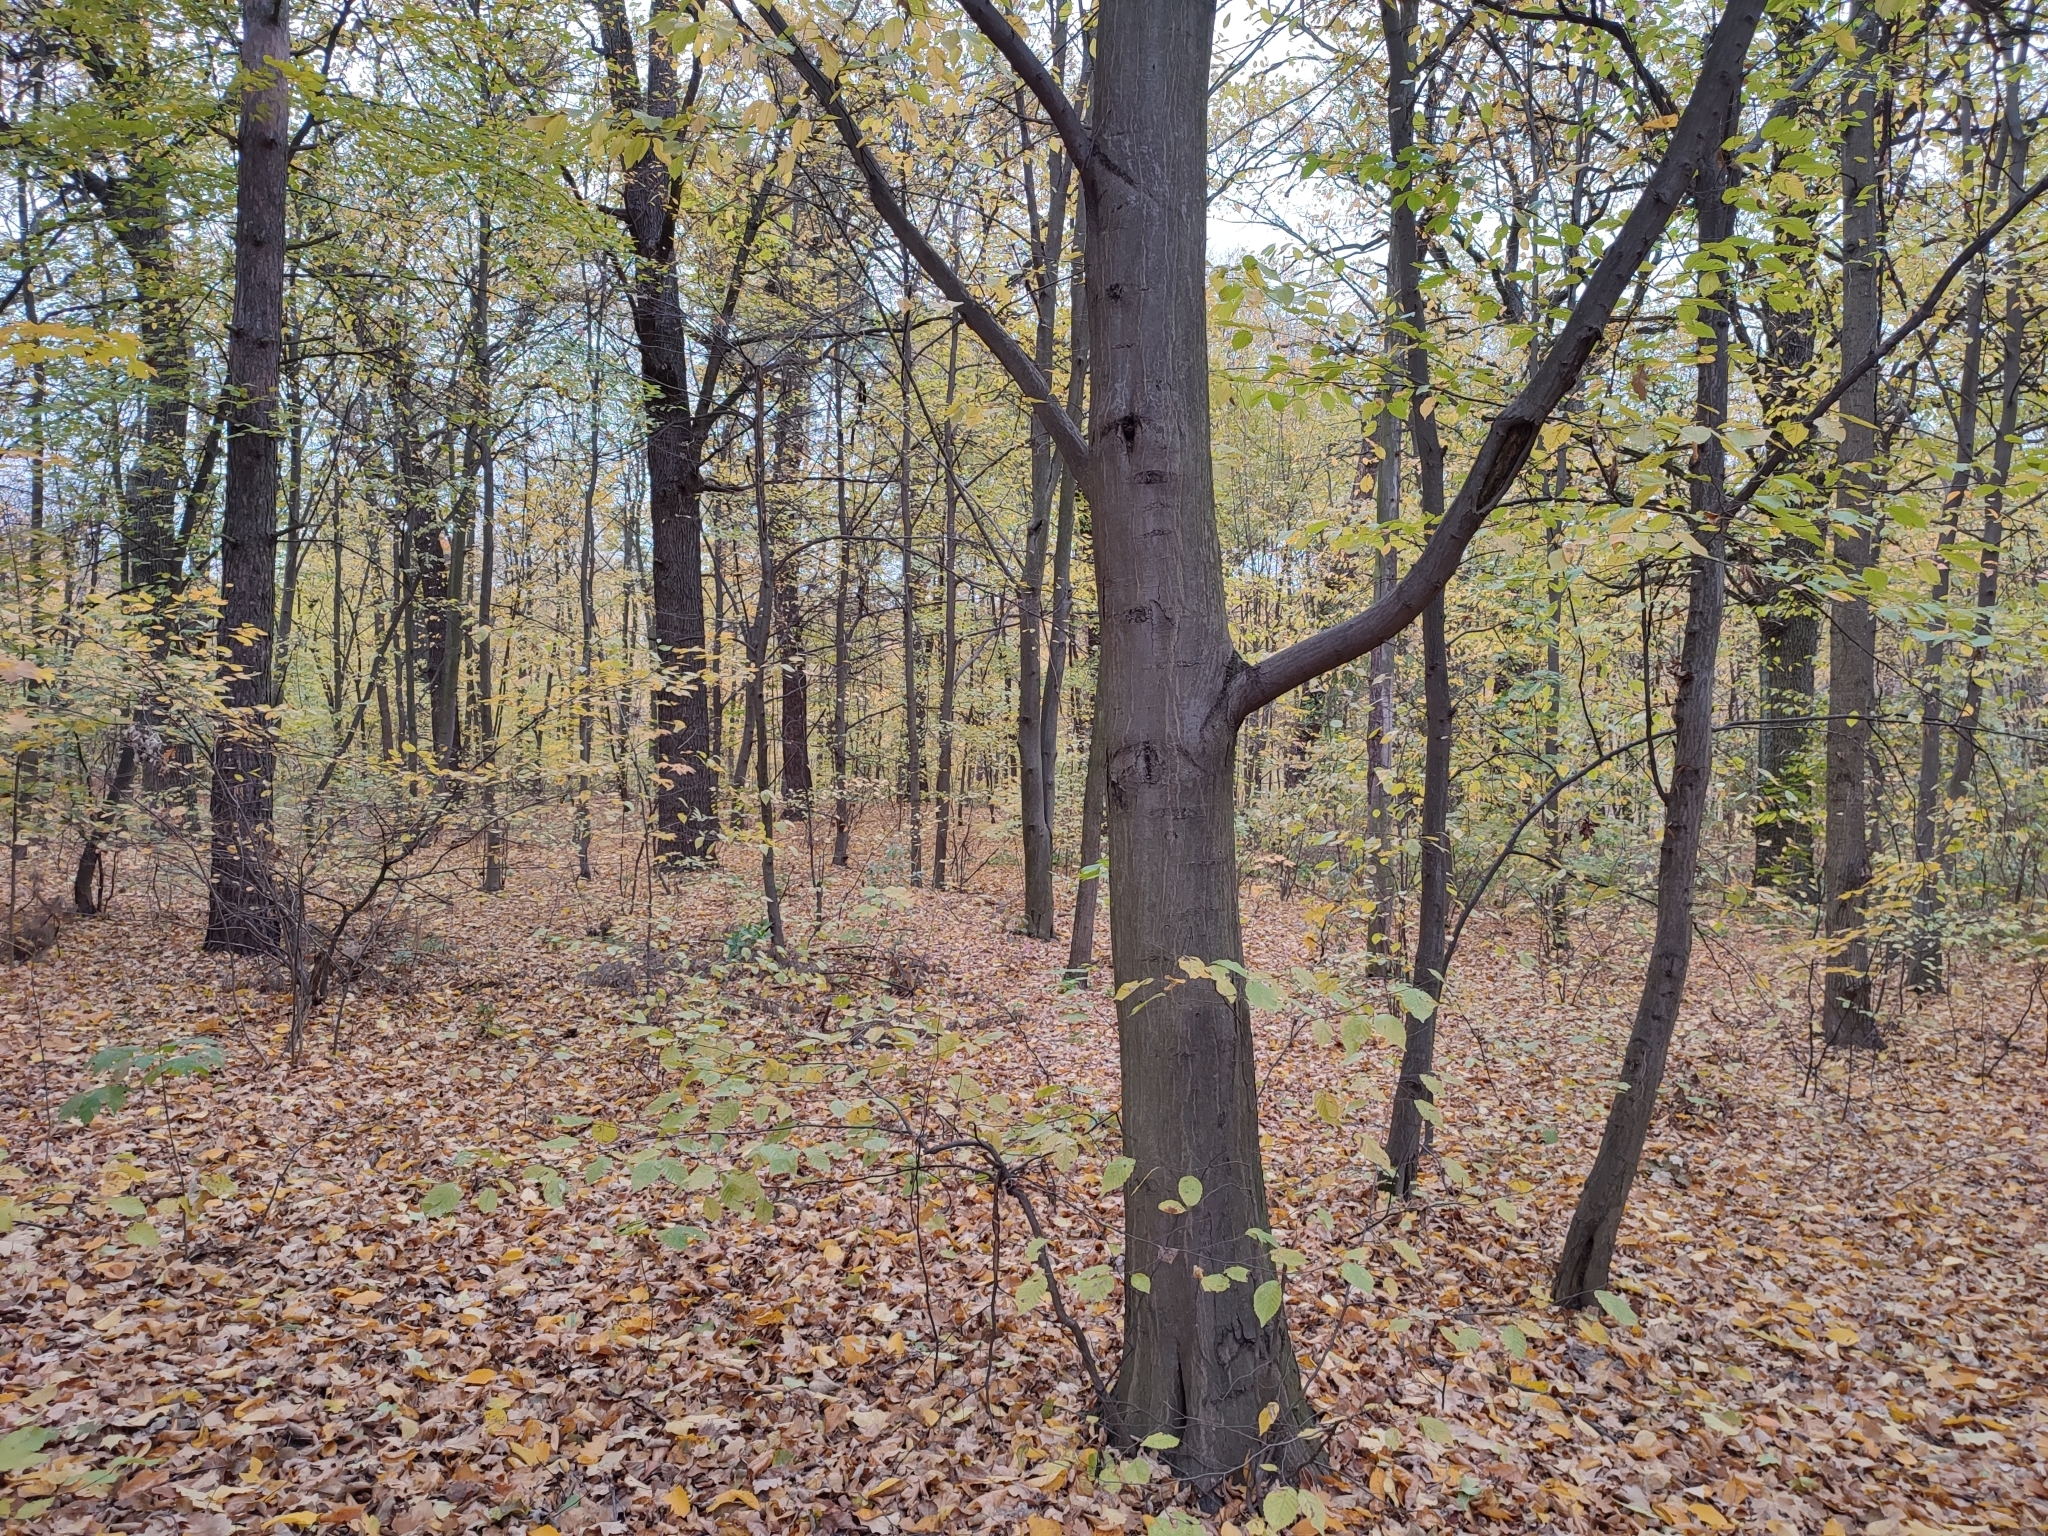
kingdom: Plantae
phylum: Tracheophyta
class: Magnoliopsida
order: Fagales
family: Betulaceae
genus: Carpinus
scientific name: Carpinus betulus
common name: Hornbeam
